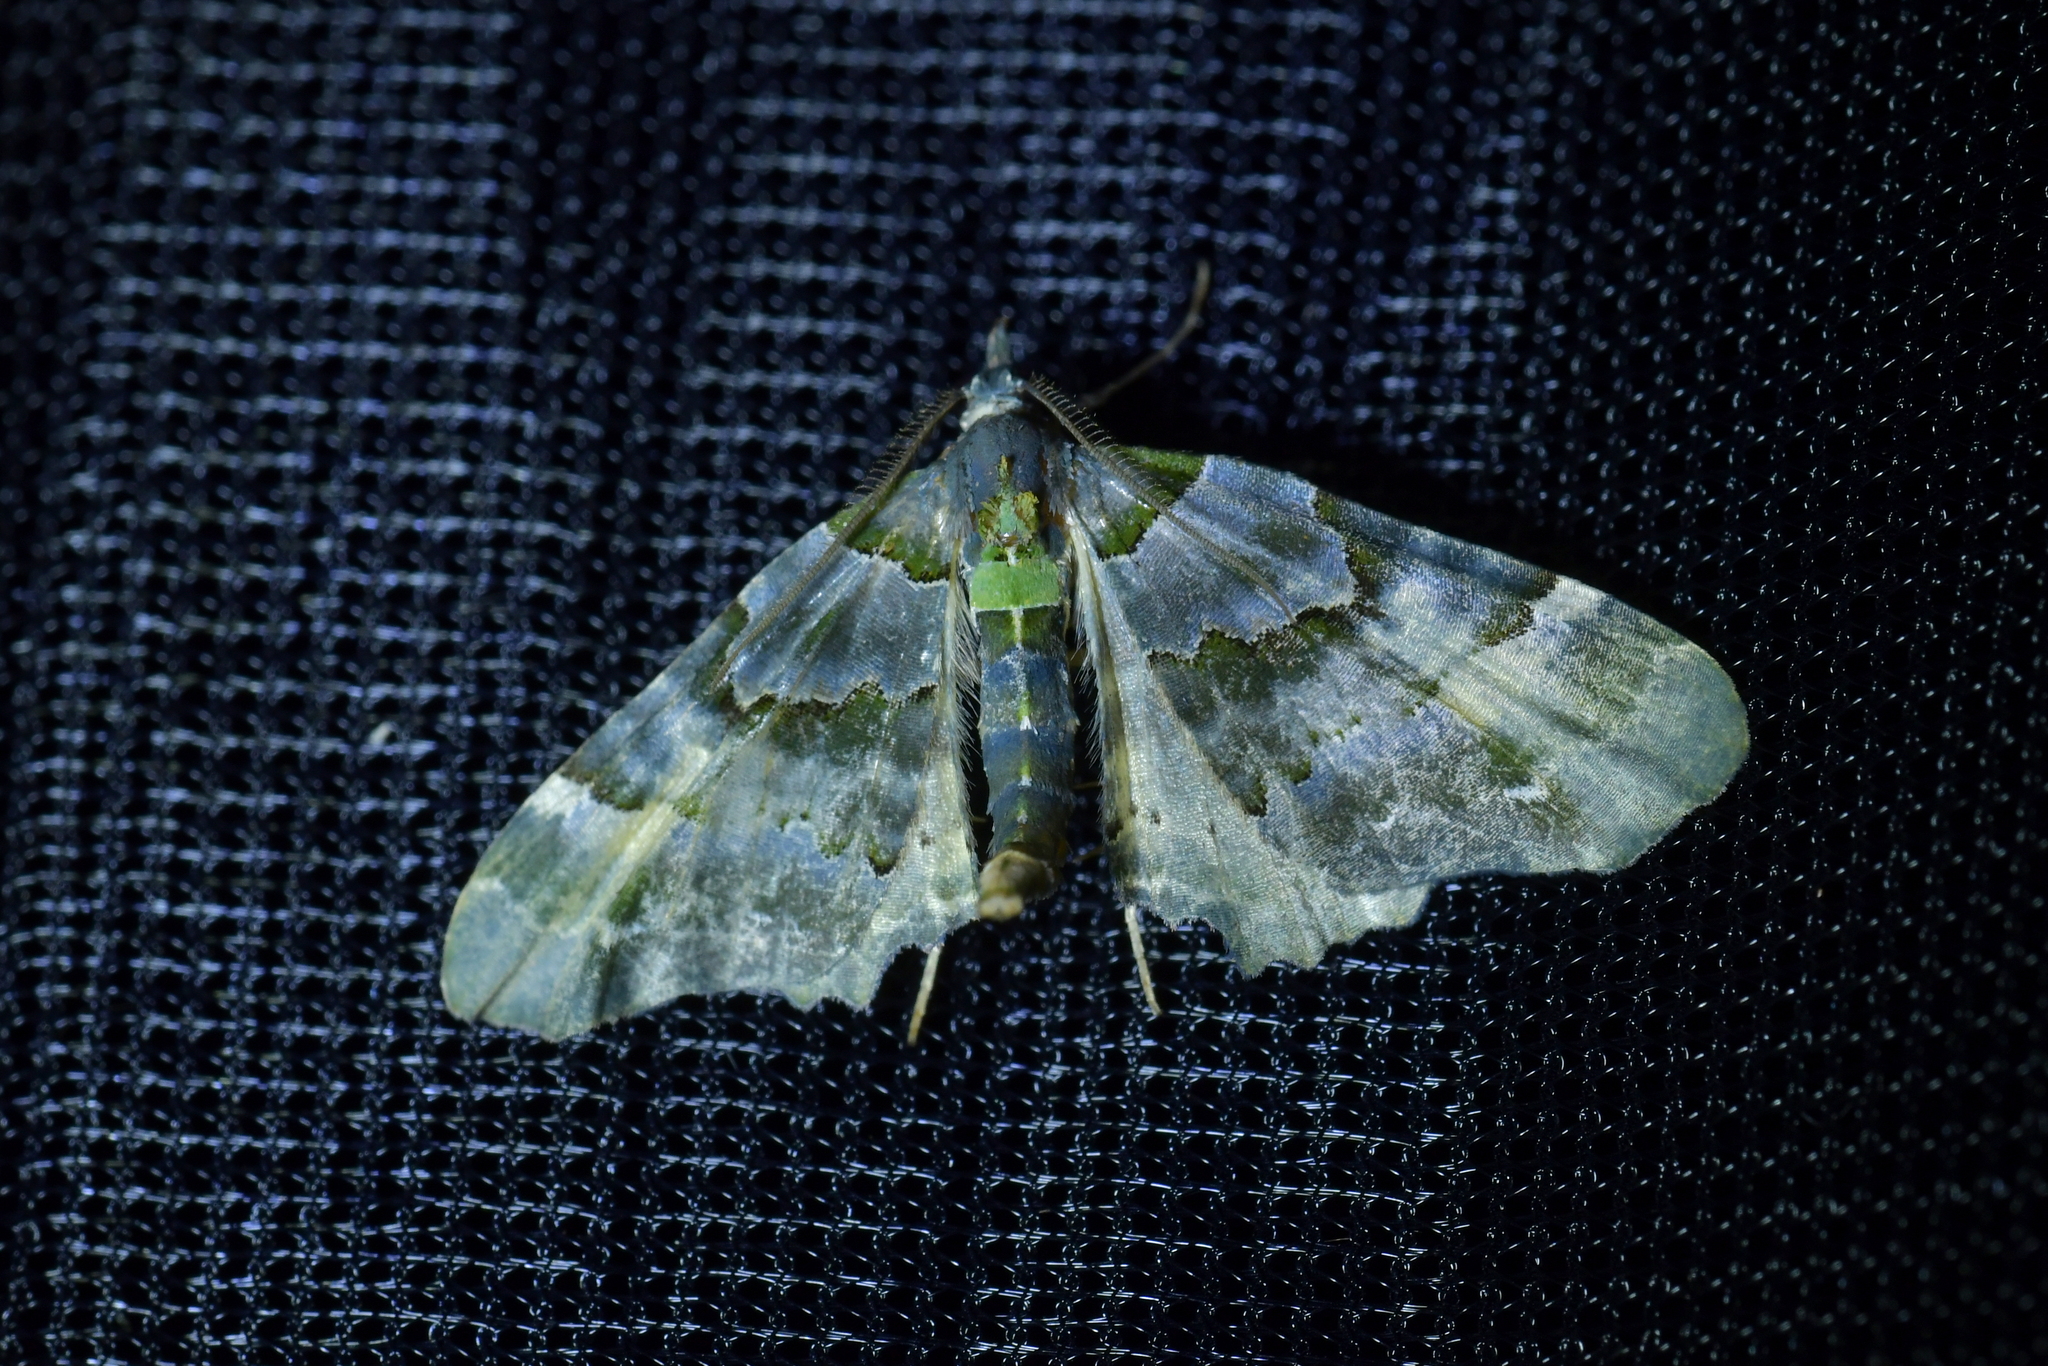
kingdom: Animalia
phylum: Arthropoda
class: Insecta
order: Lepidoptera
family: Geometridae
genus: Elvia
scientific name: Elvia glaucata
